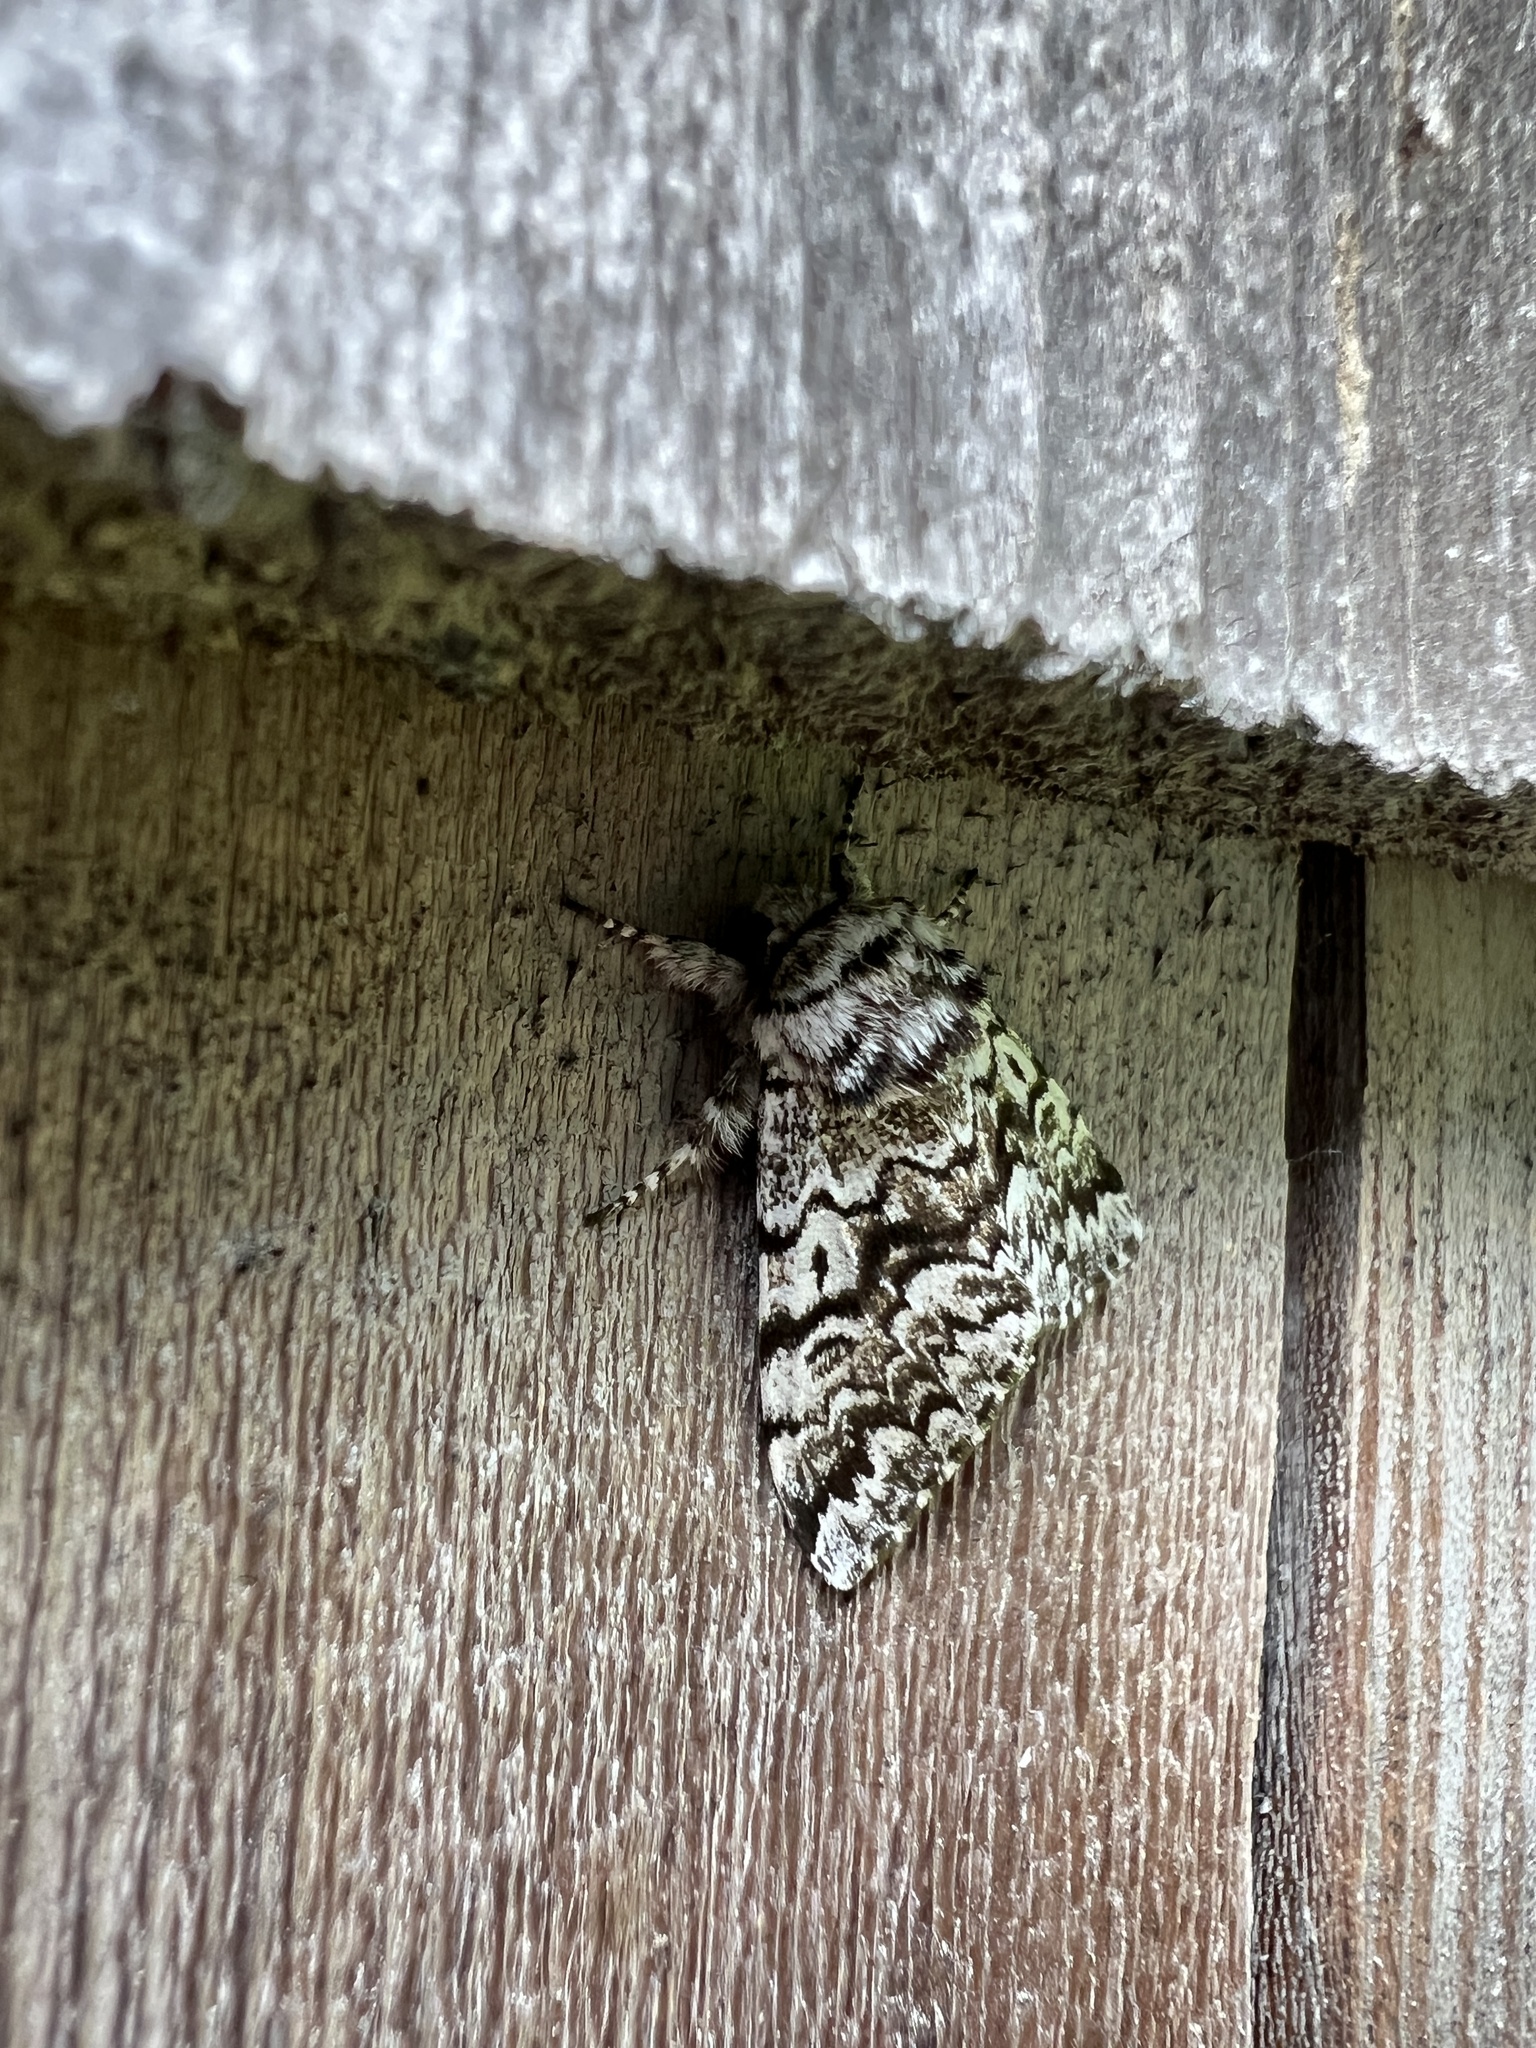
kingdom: Animalia
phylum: Arthropoda
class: Insecta
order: Lepidoptera
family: Noctuidae
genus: Panthea
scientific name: Panthea acronyctoides
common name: Black zigzag moth
